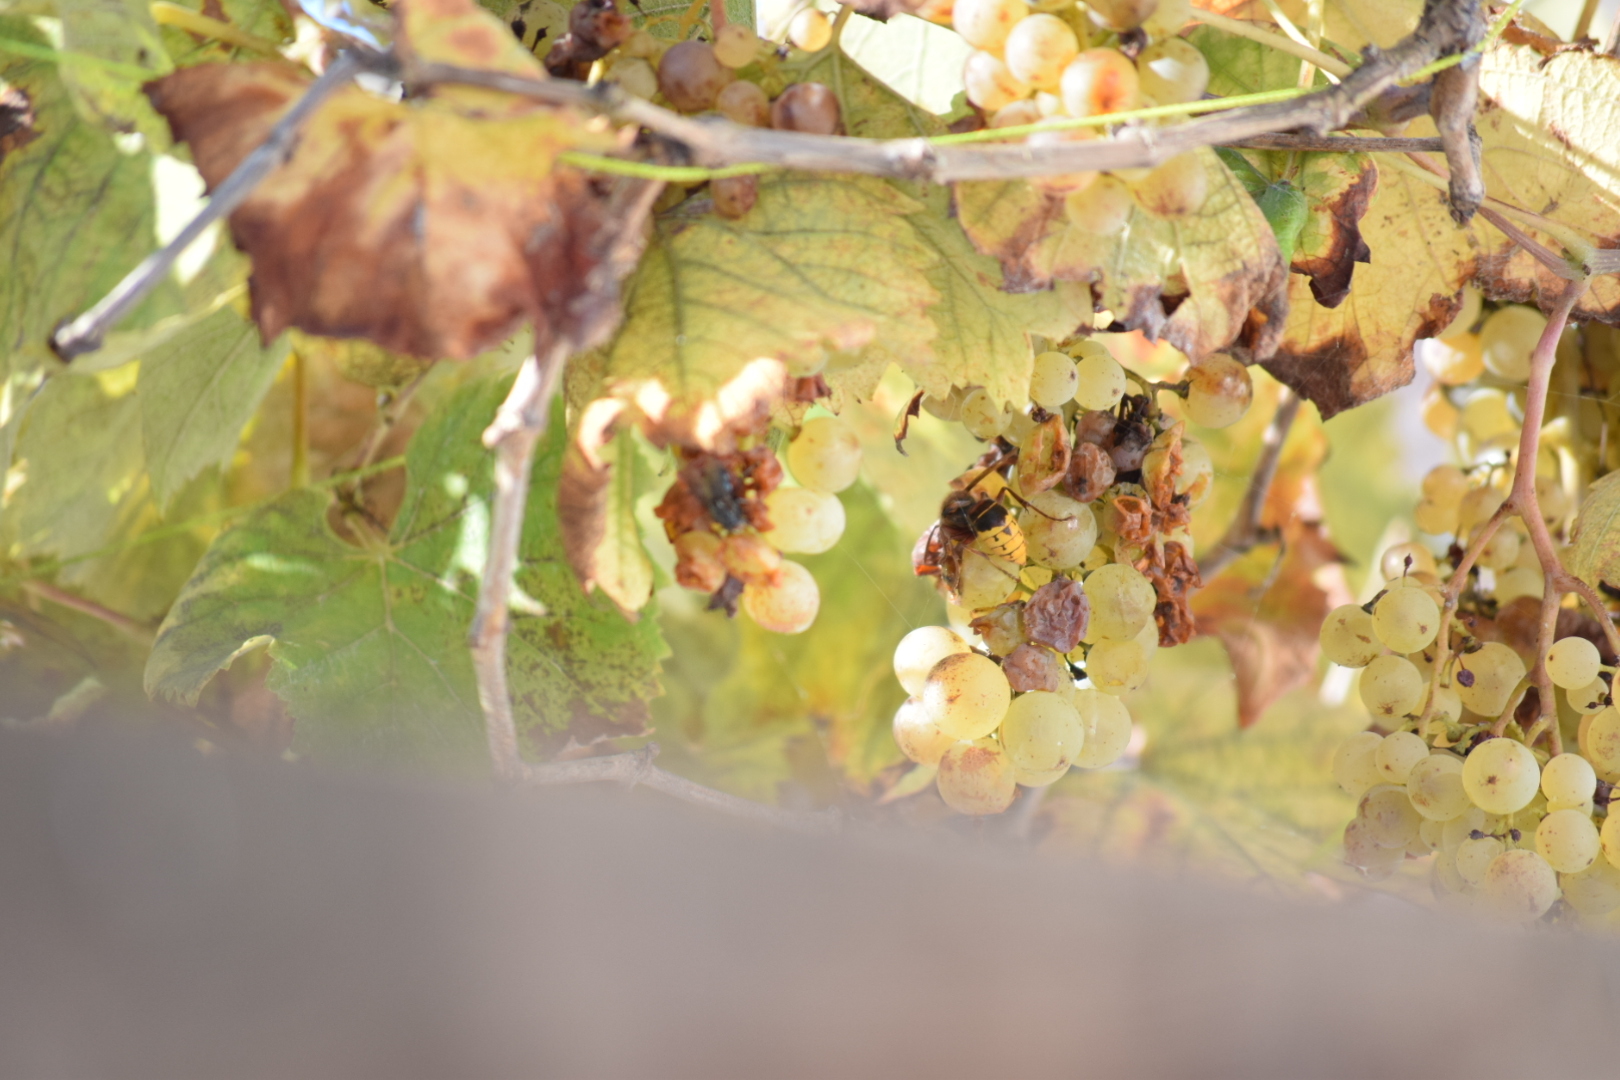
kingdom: Animalia
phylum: Arthropoda
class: Insecta
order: Hymenoptera
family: Vespidae
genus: Vespa
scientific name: Vespa velutina
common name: Asian hornet
